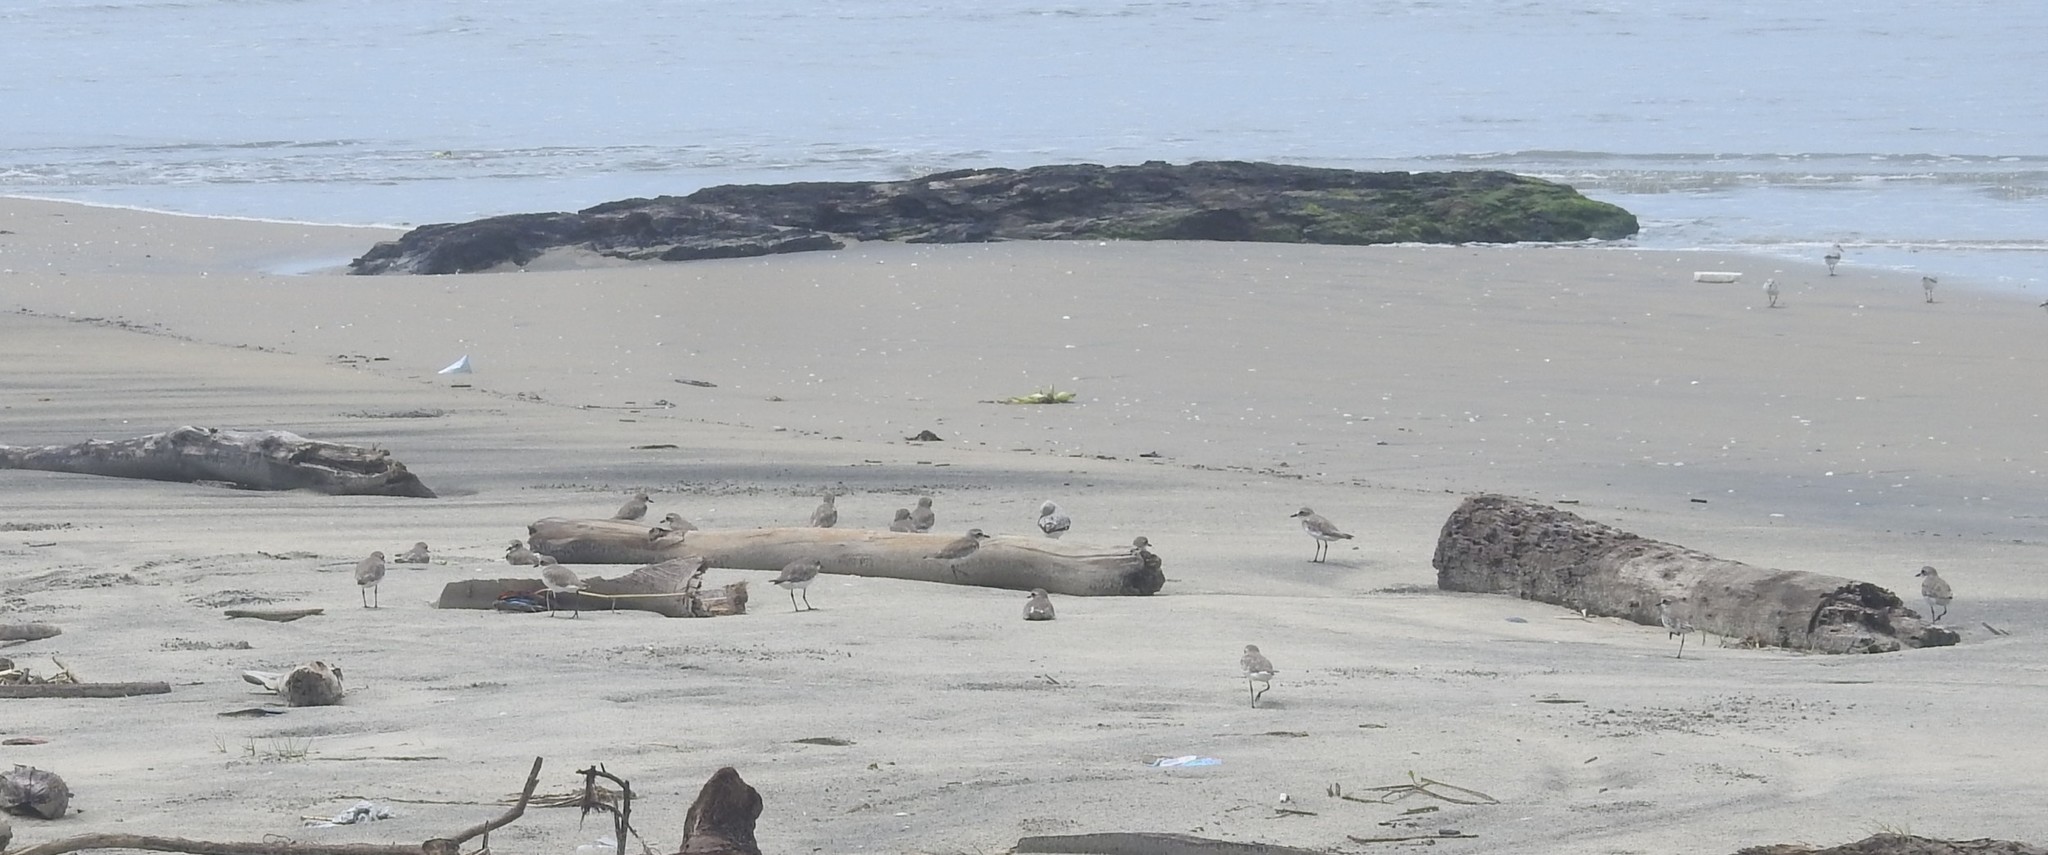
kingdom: Animalia
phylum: Chordata
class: Aves
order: Charadriiformes
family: Charadriidae
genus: Anarhynchus
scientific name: Anarhynchus
